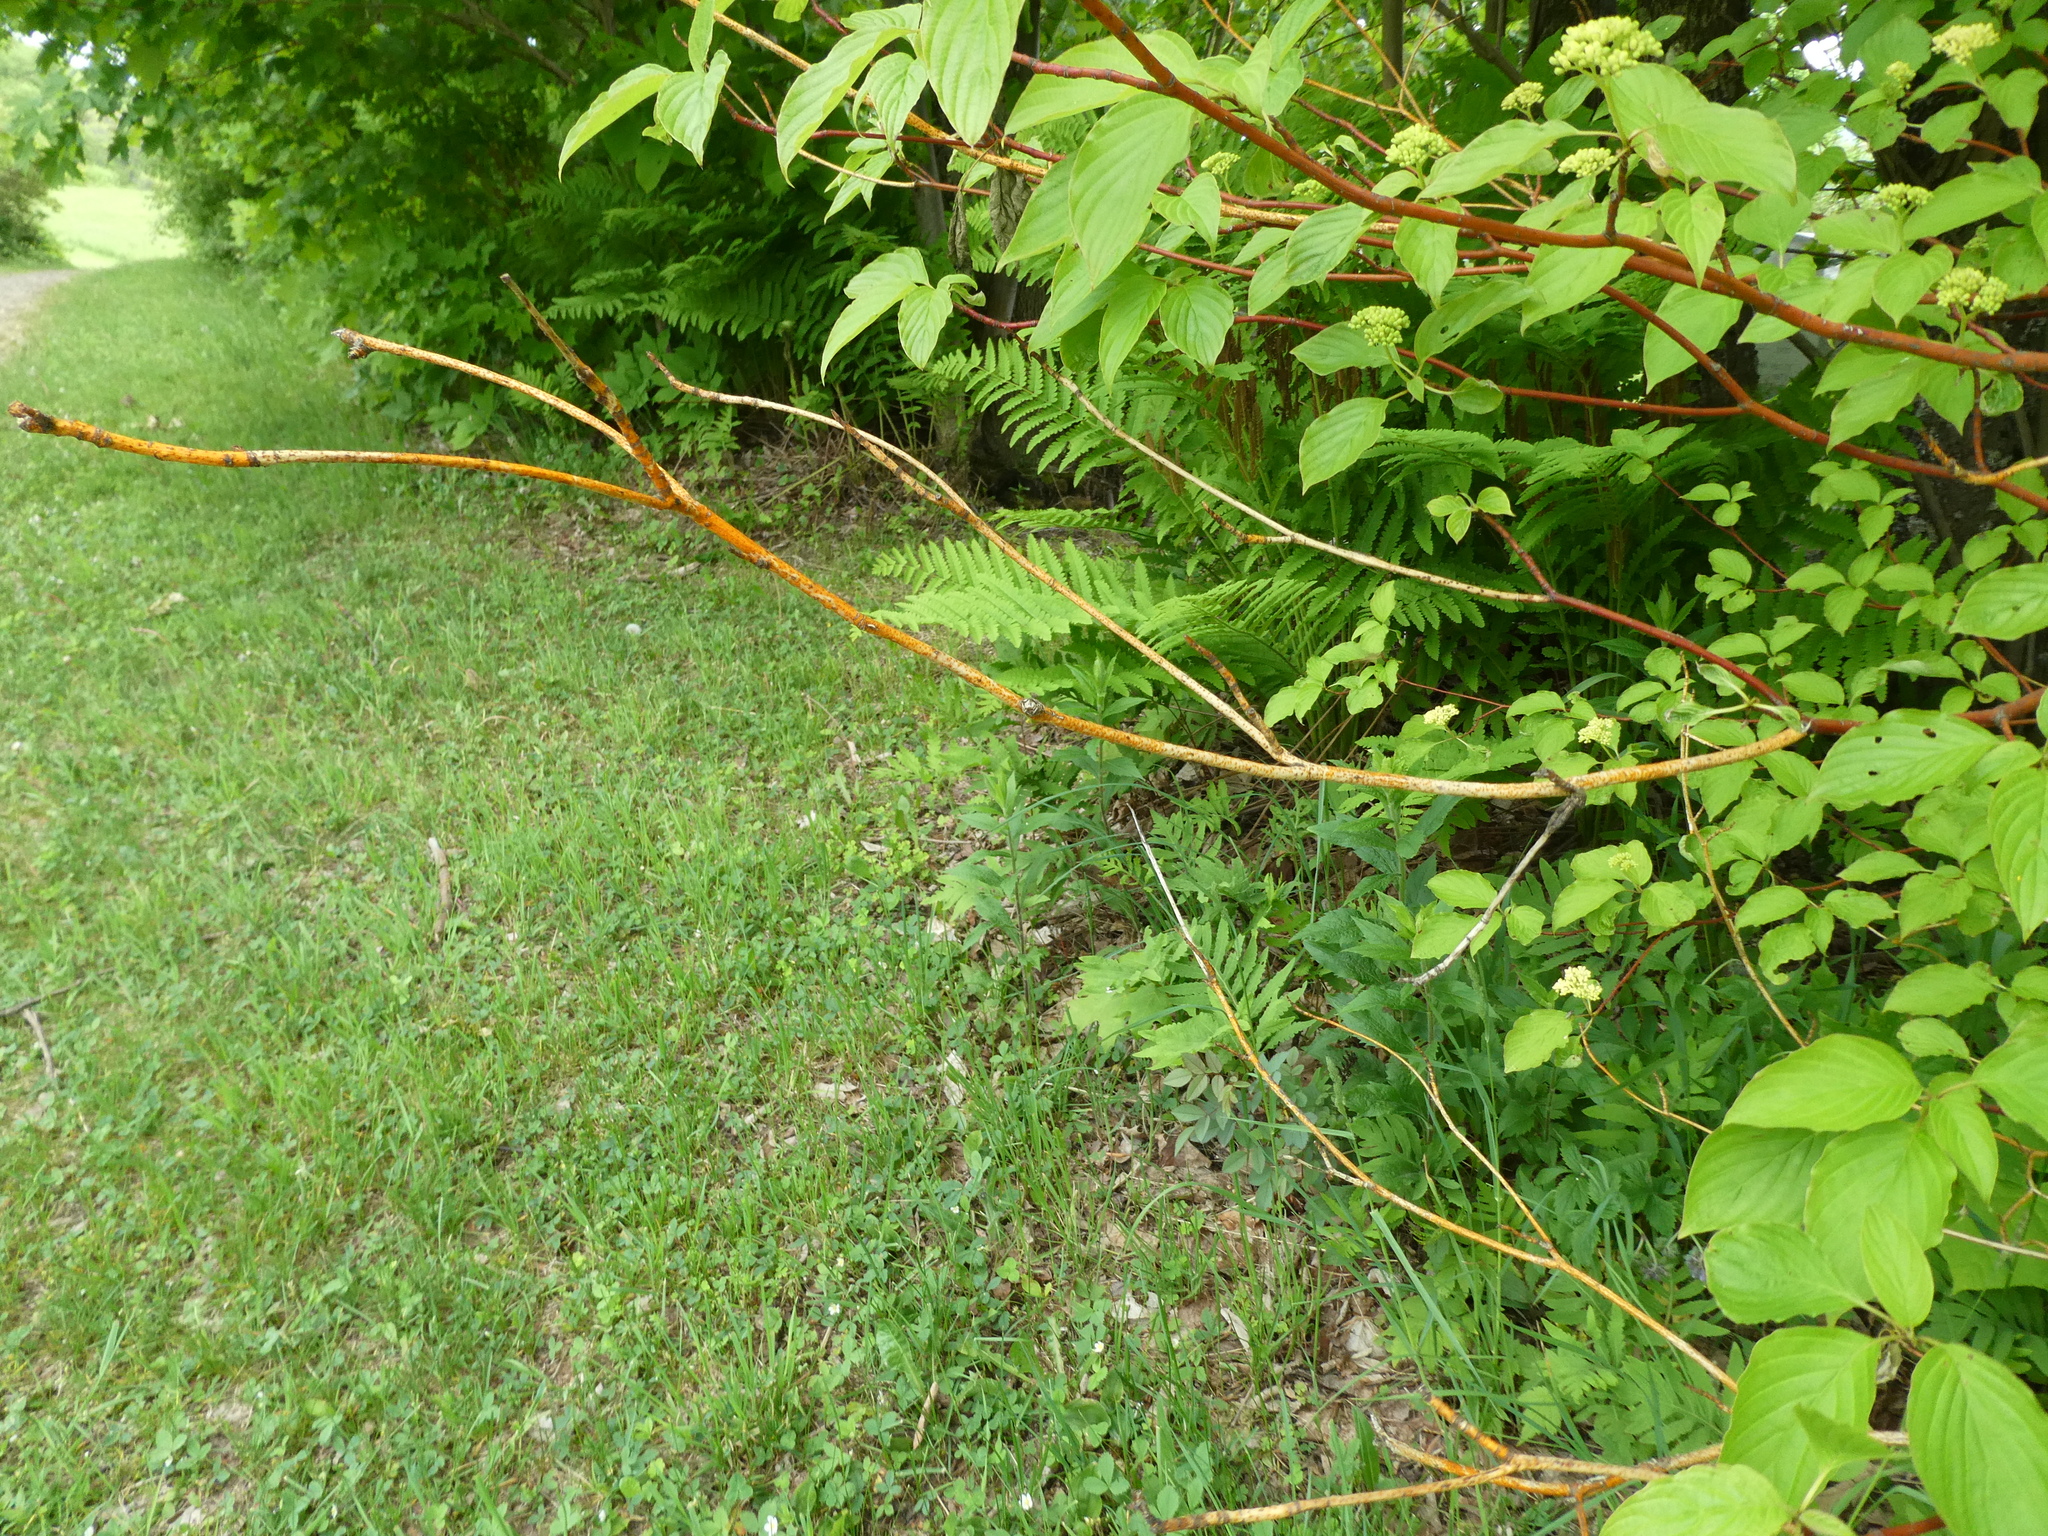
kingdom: Plantae
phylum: Tracheophyta
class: Magnoliopsida
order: Cornales
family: Cornaceae
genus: Cornus
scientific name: Cornus alternifolia
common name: Pagoda dogwood
